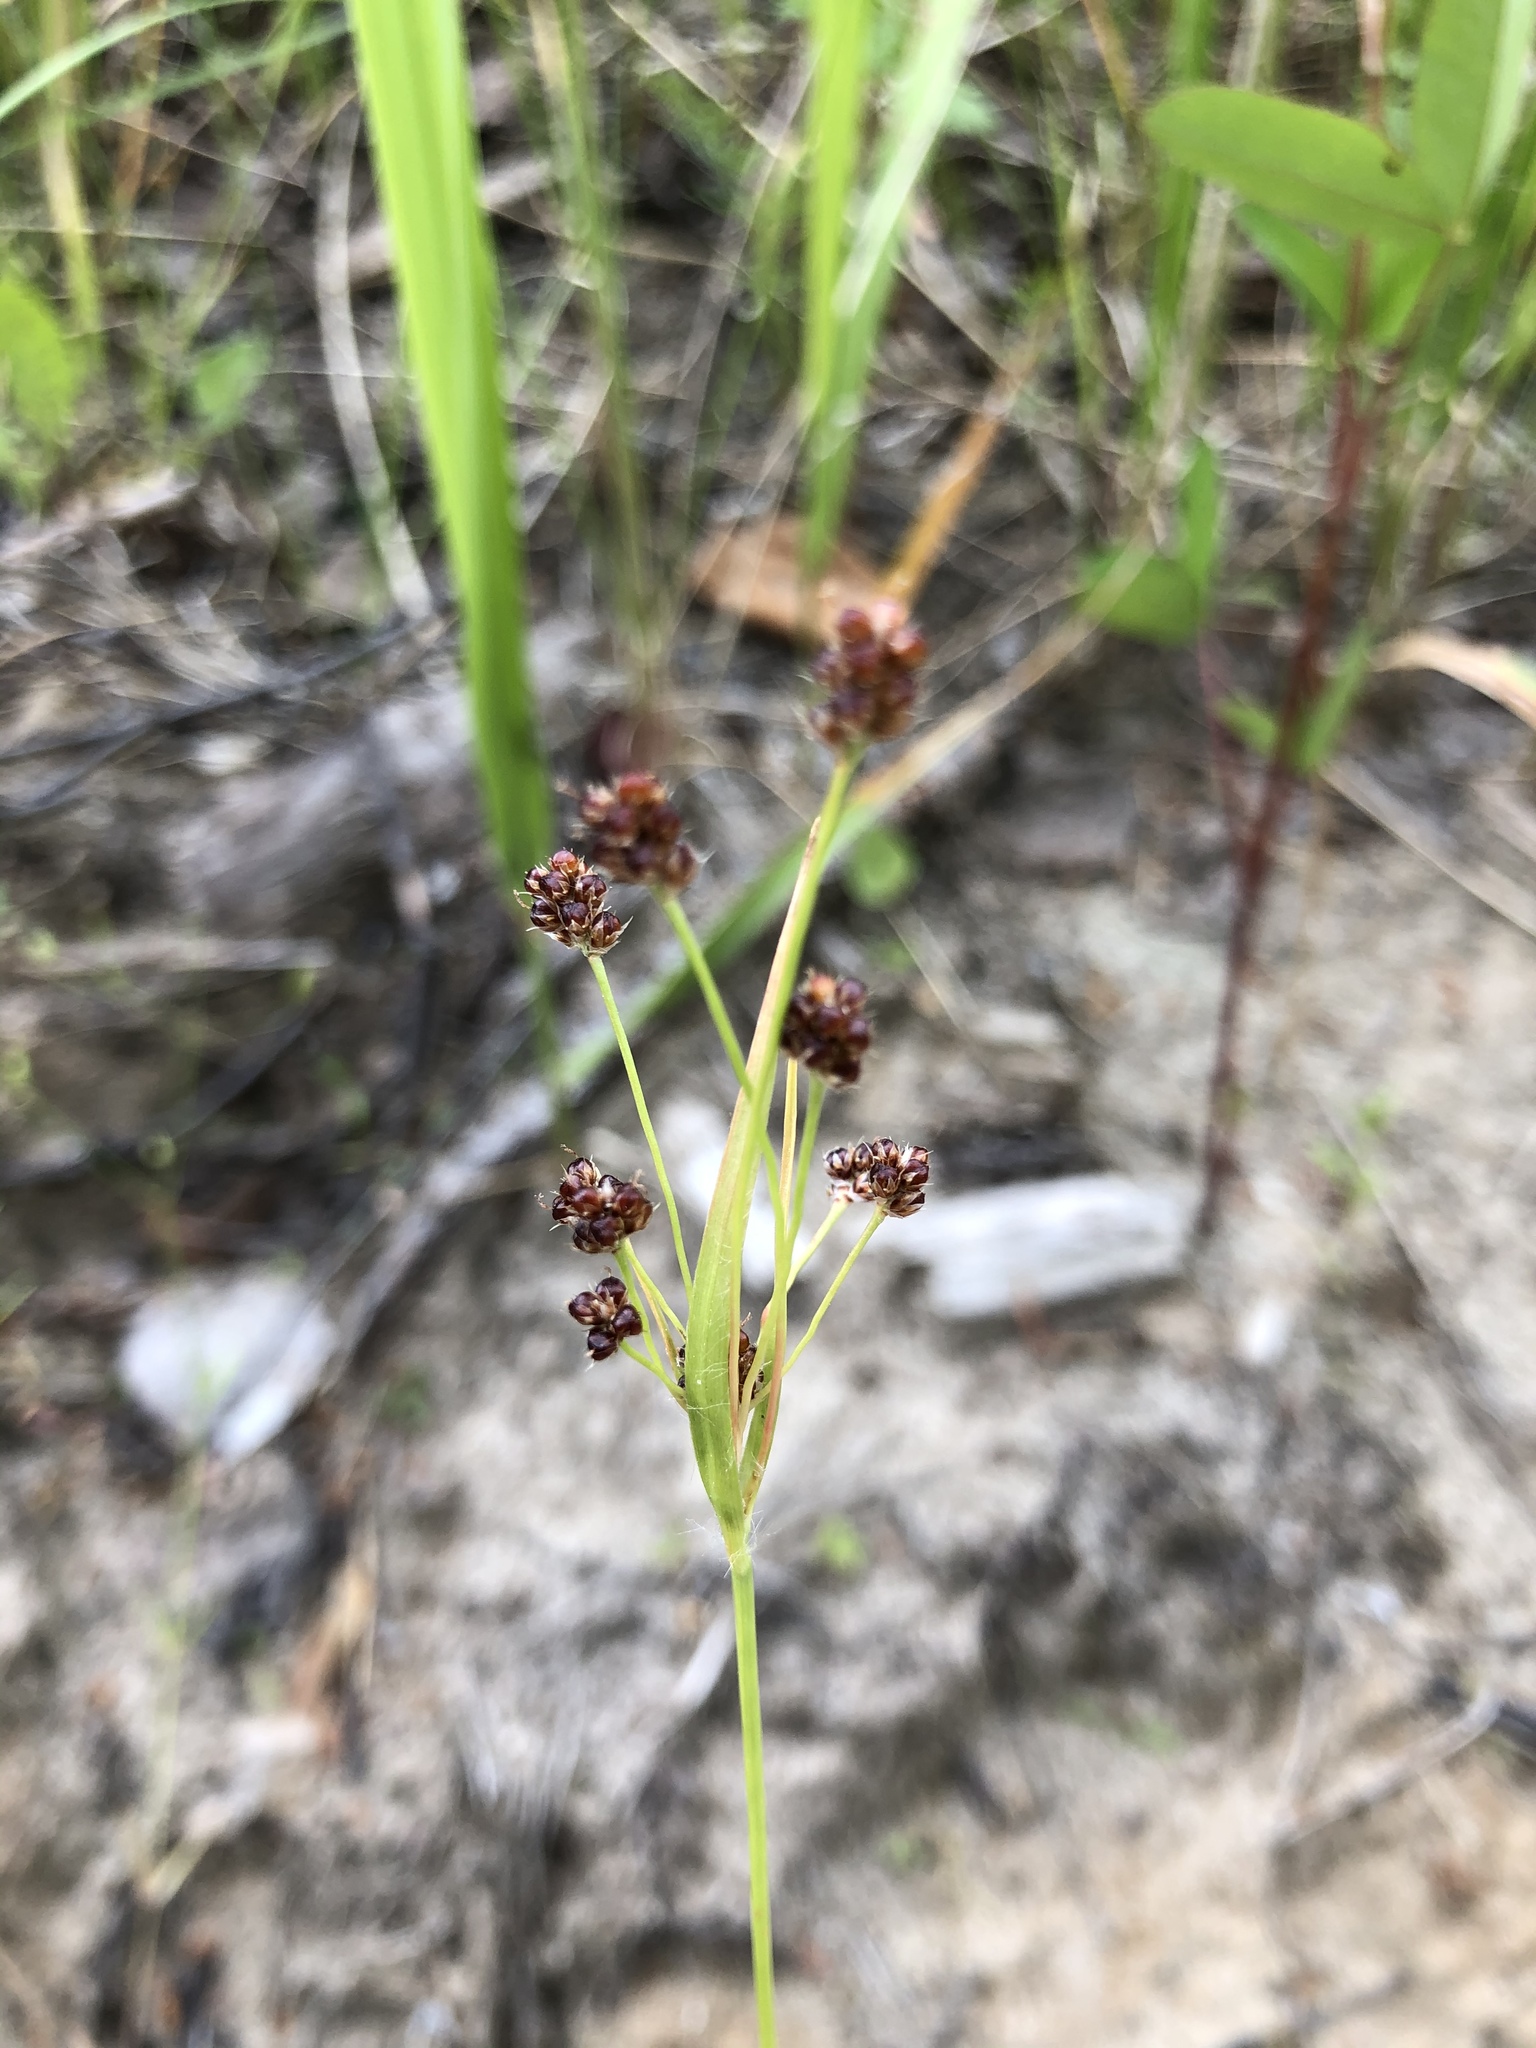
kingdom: Plantae
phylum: Tracheophyta
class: Liliopsida
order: Poales
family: Juncaceae
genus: Luzula
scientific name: Luzula pallescens
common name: Fen wood-rush
